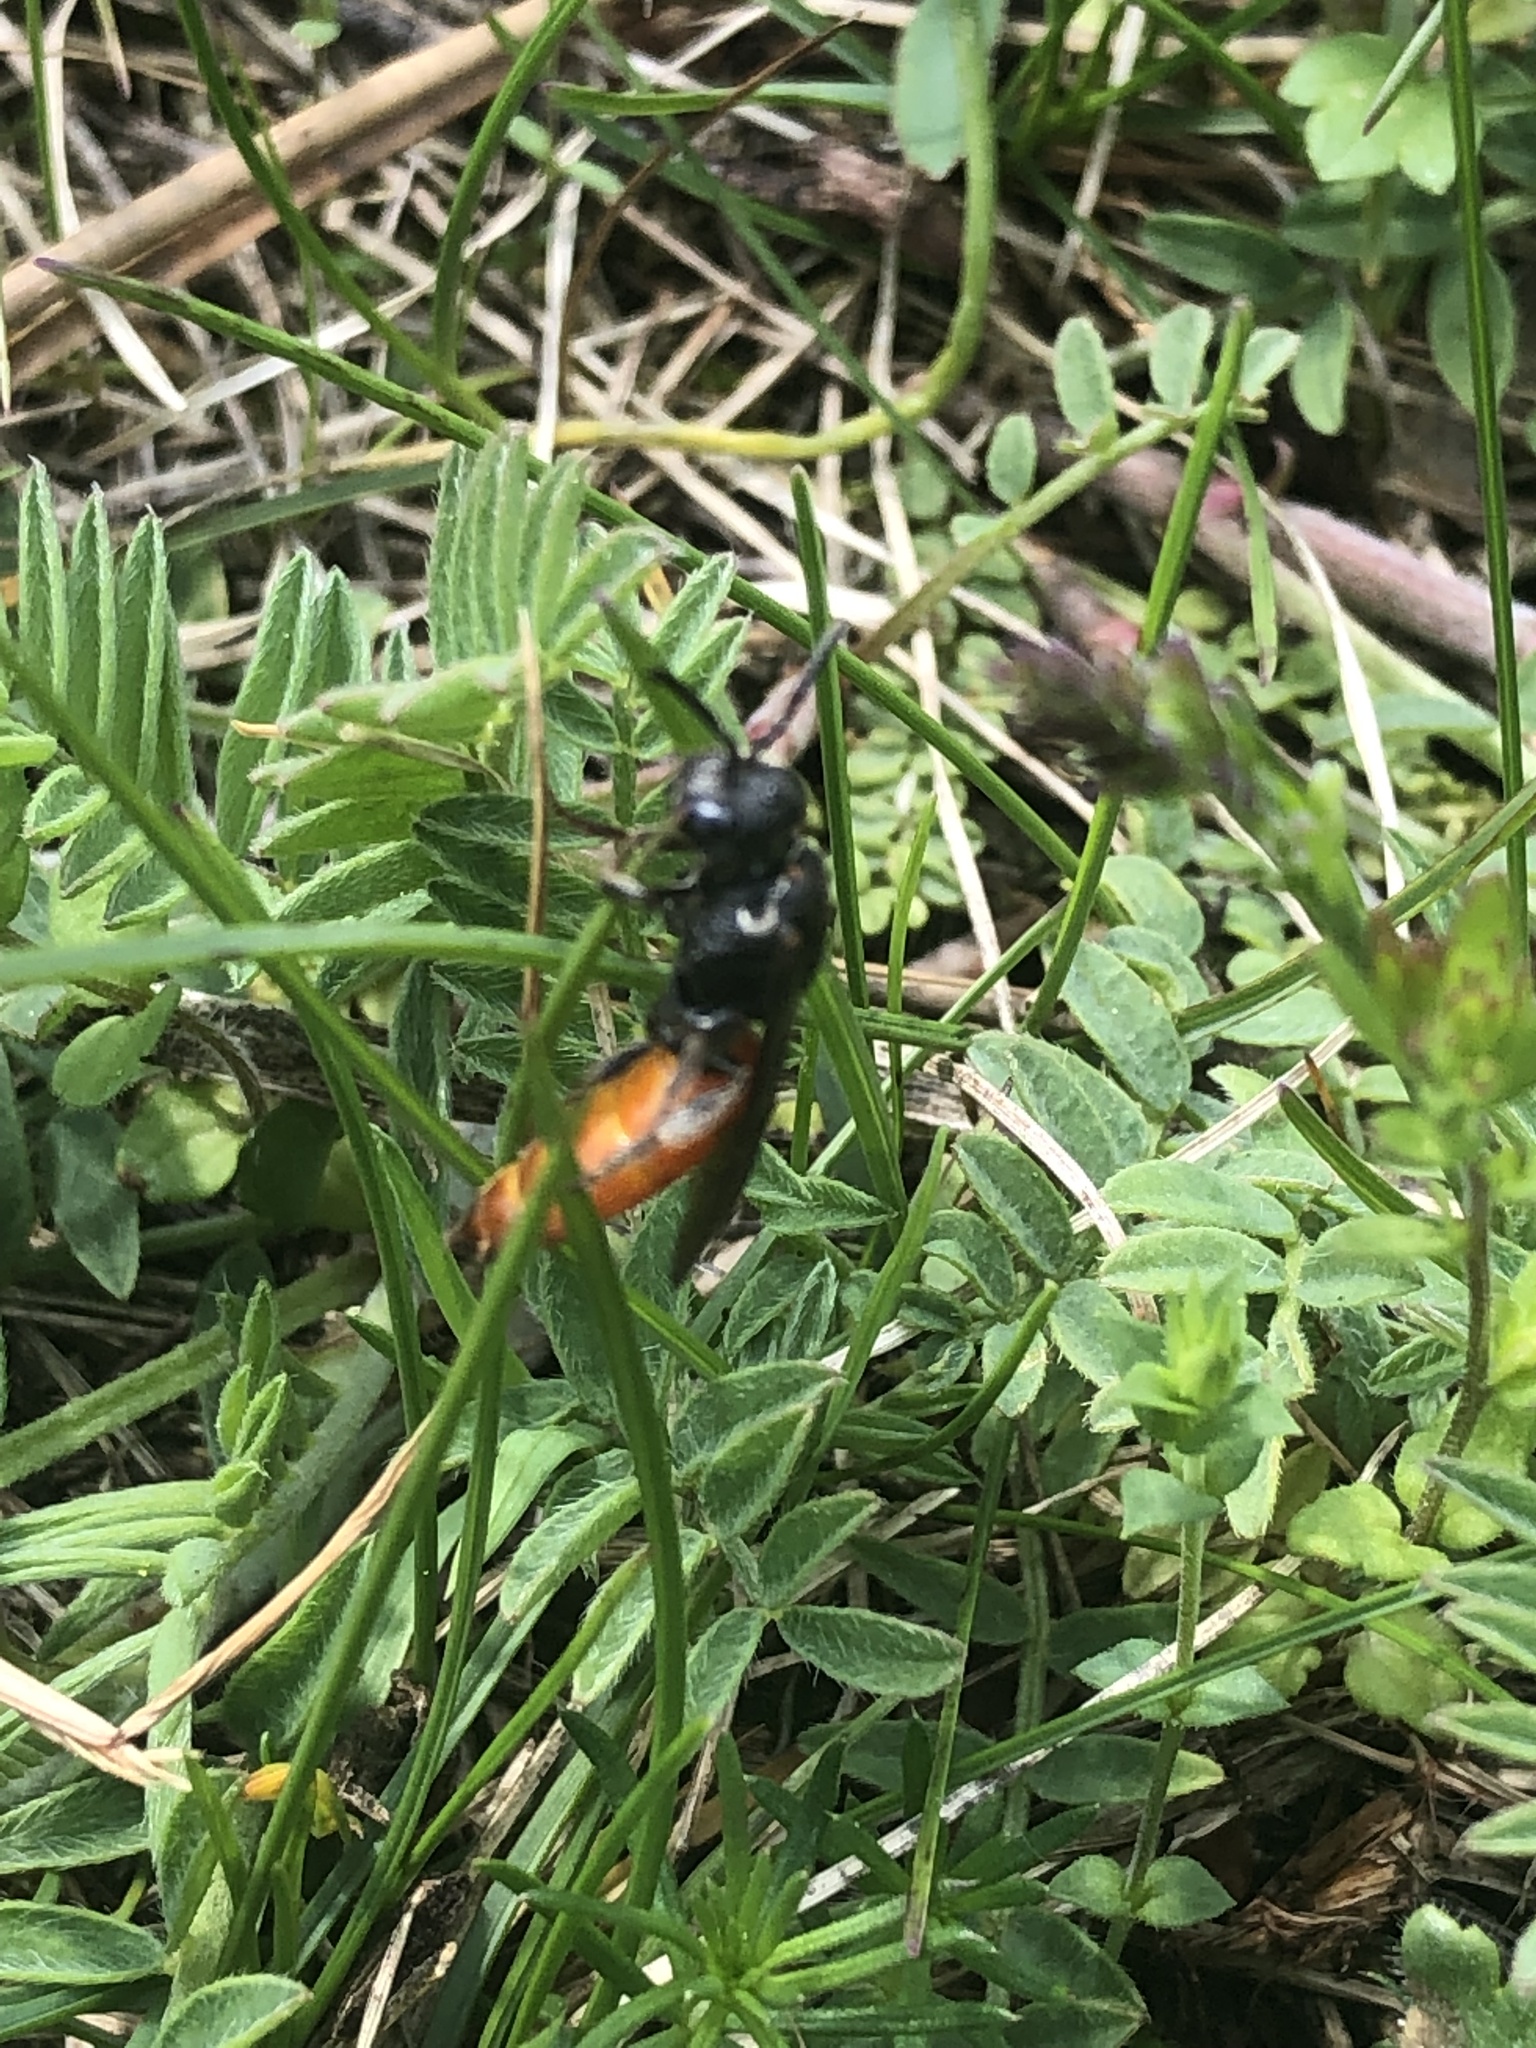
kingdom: Animalia
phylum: Arthropoda
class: Insecta
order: Hymenoptera
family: Halictidae
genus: Sphecodes
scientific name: Sphecodes albilabris
